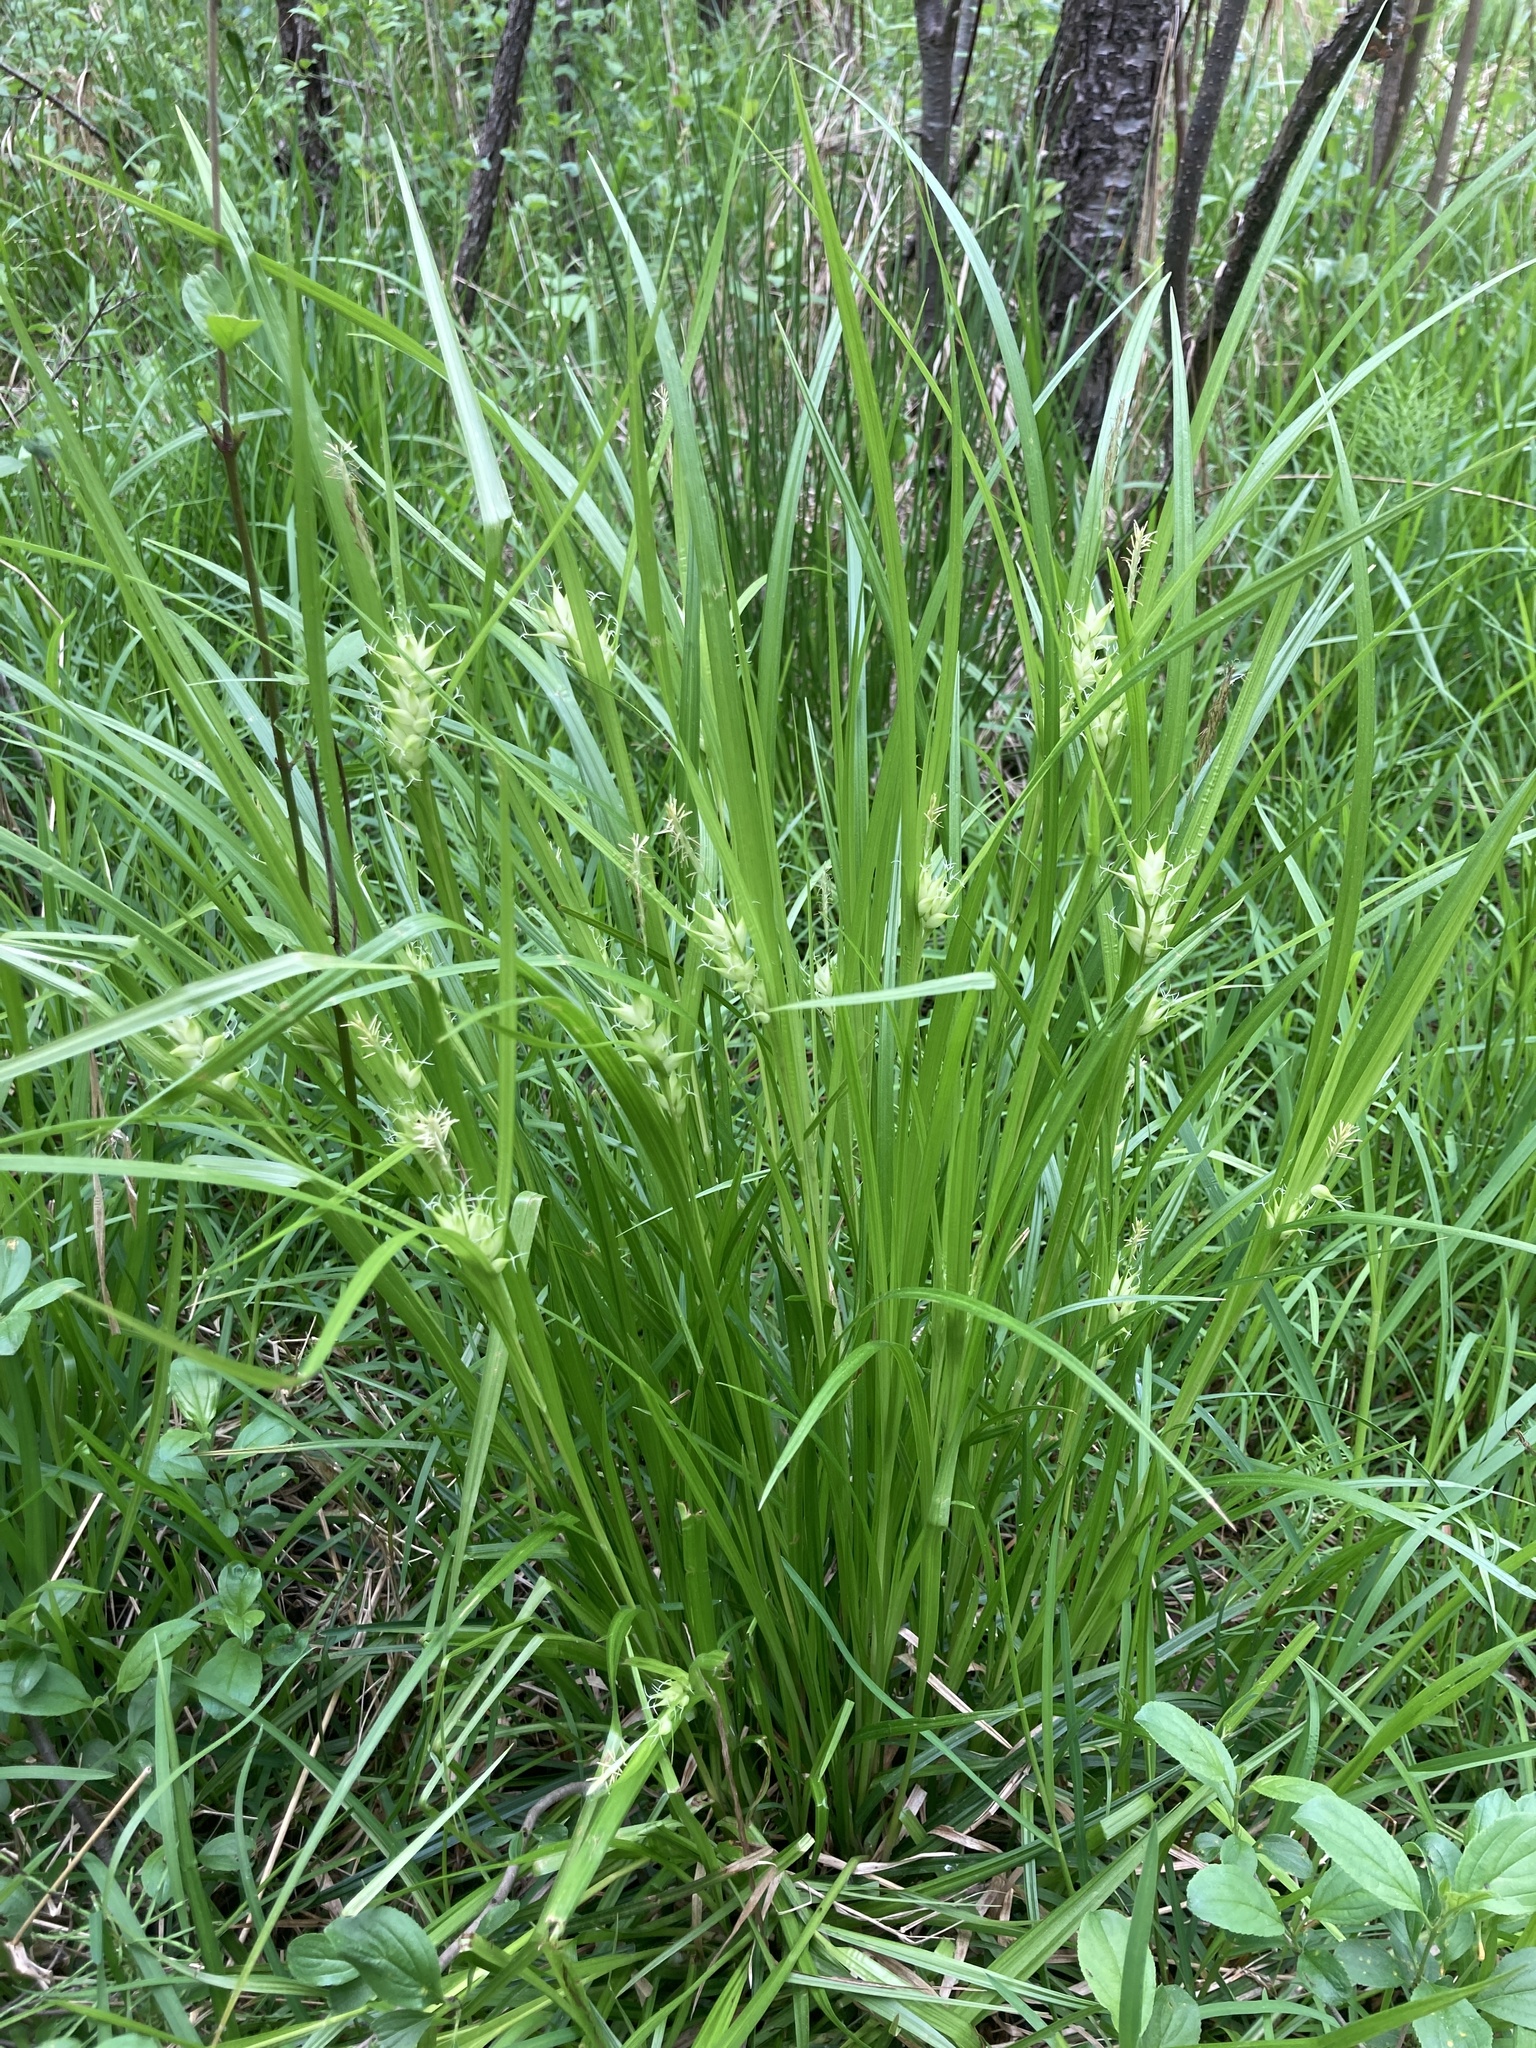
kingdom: Plantae
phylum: Tracheophyta
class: Liliopsida
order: Poales
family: Cyperaceae
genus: Carex
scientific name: Carex intumescens
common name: Greater bladder sedge
